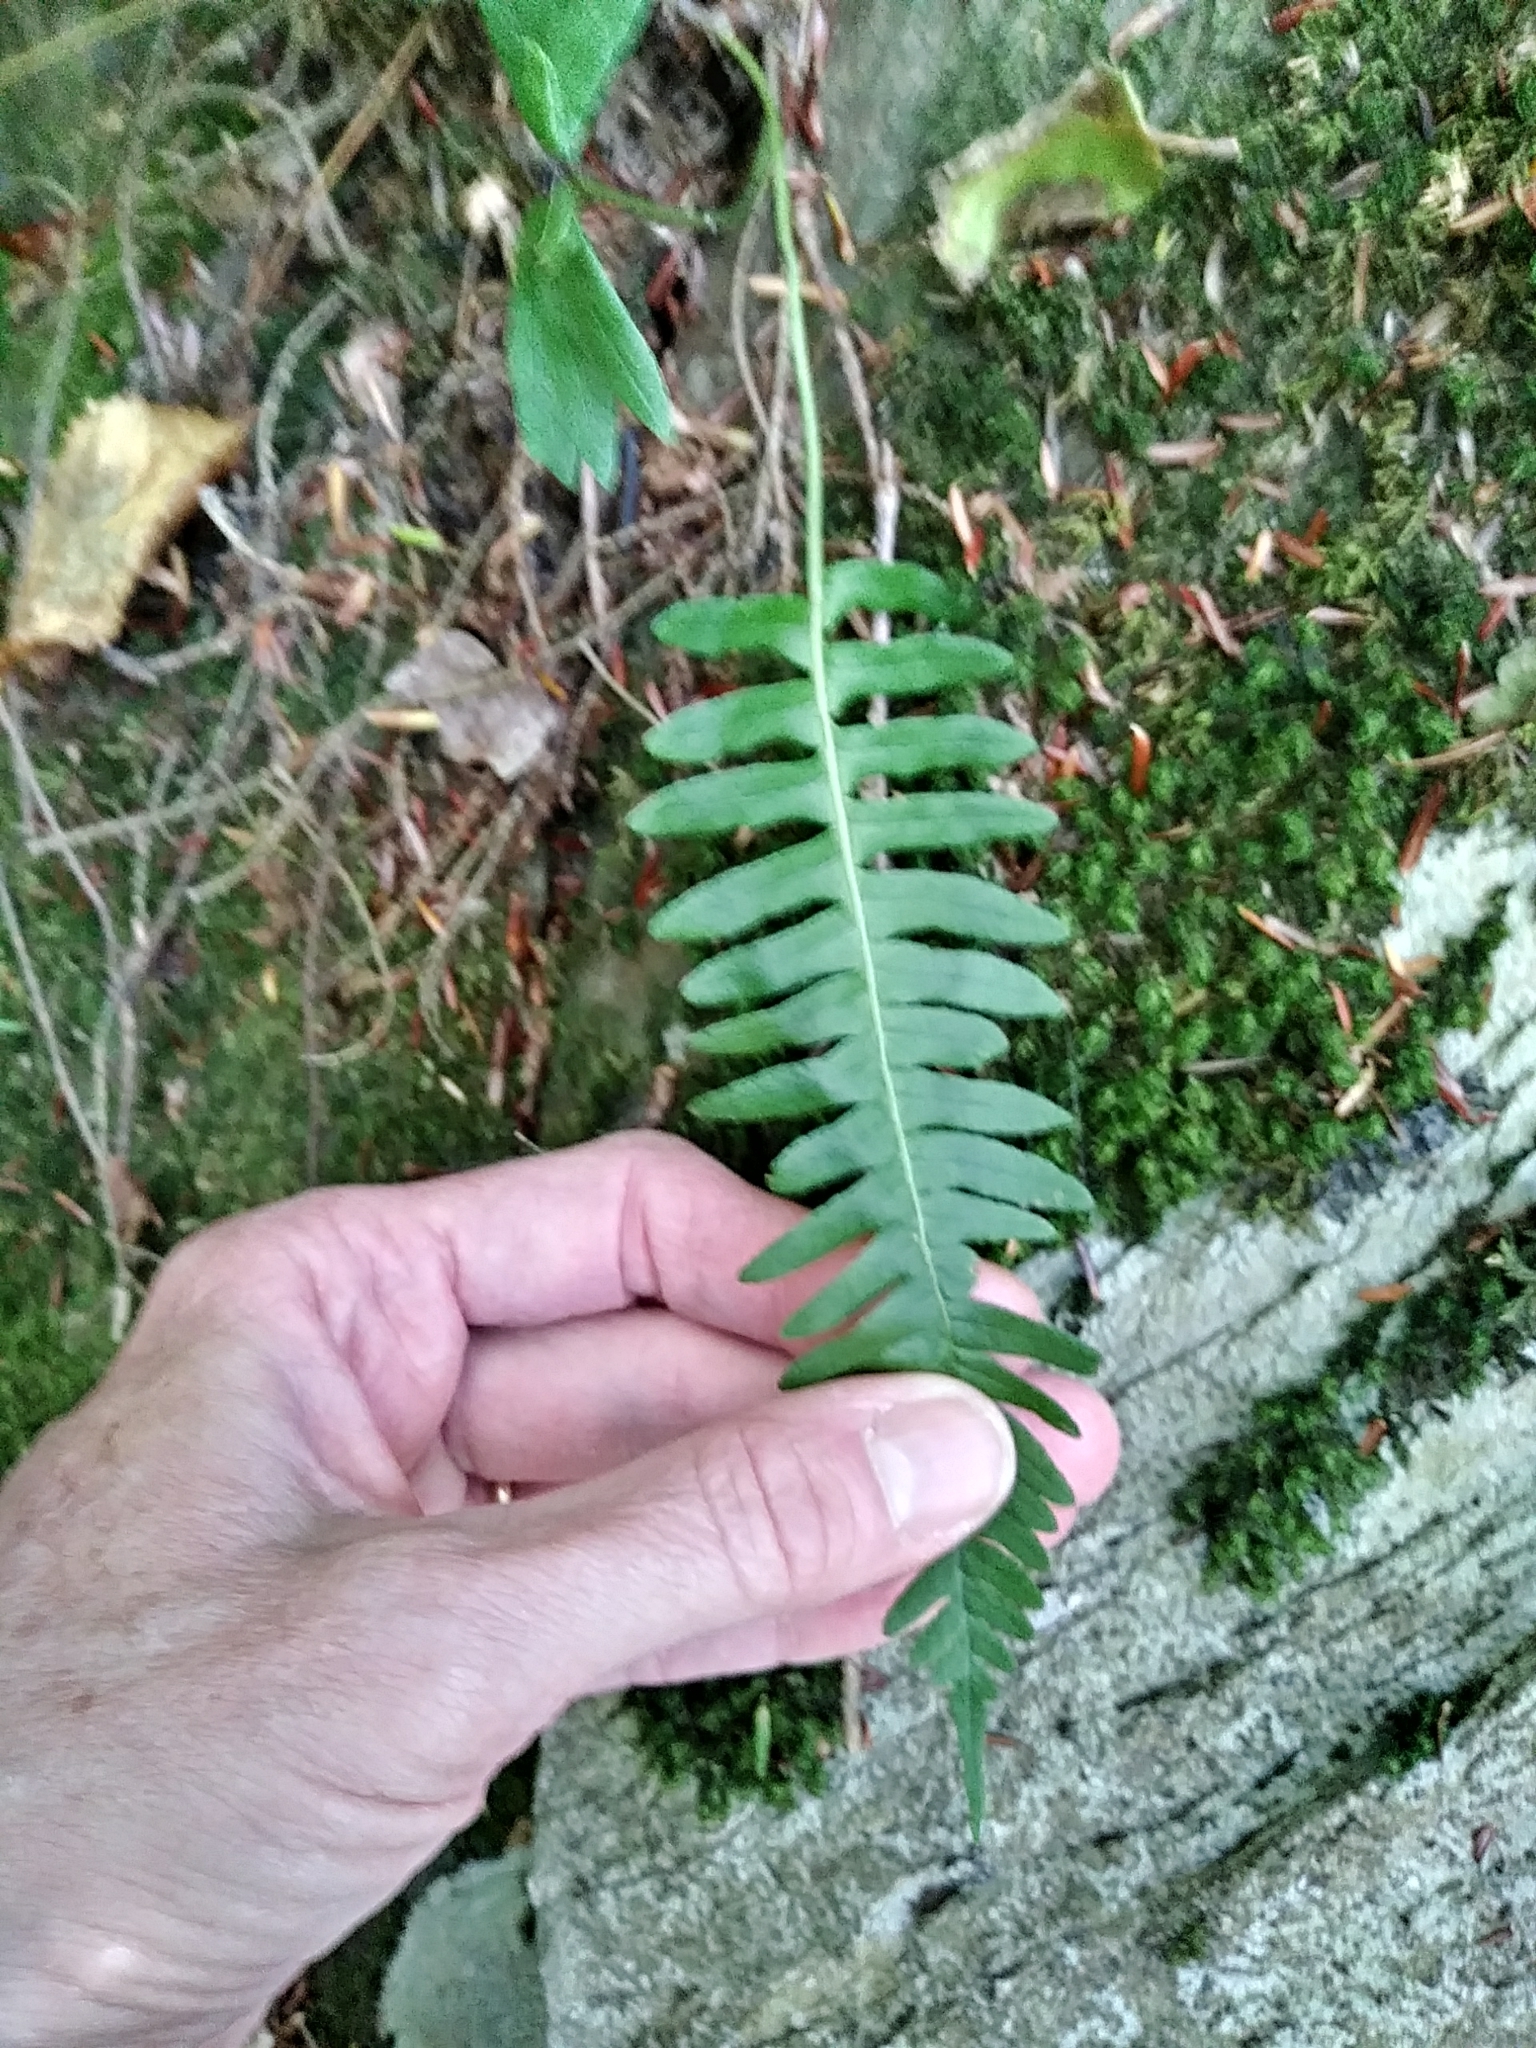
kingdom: Plantae
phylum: Tracheophyta
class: Polypodiopsida
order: Polypodiales
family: Polypodiaceae
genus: Polypodium
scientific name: Polypodium virginianum
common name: American wall fern
